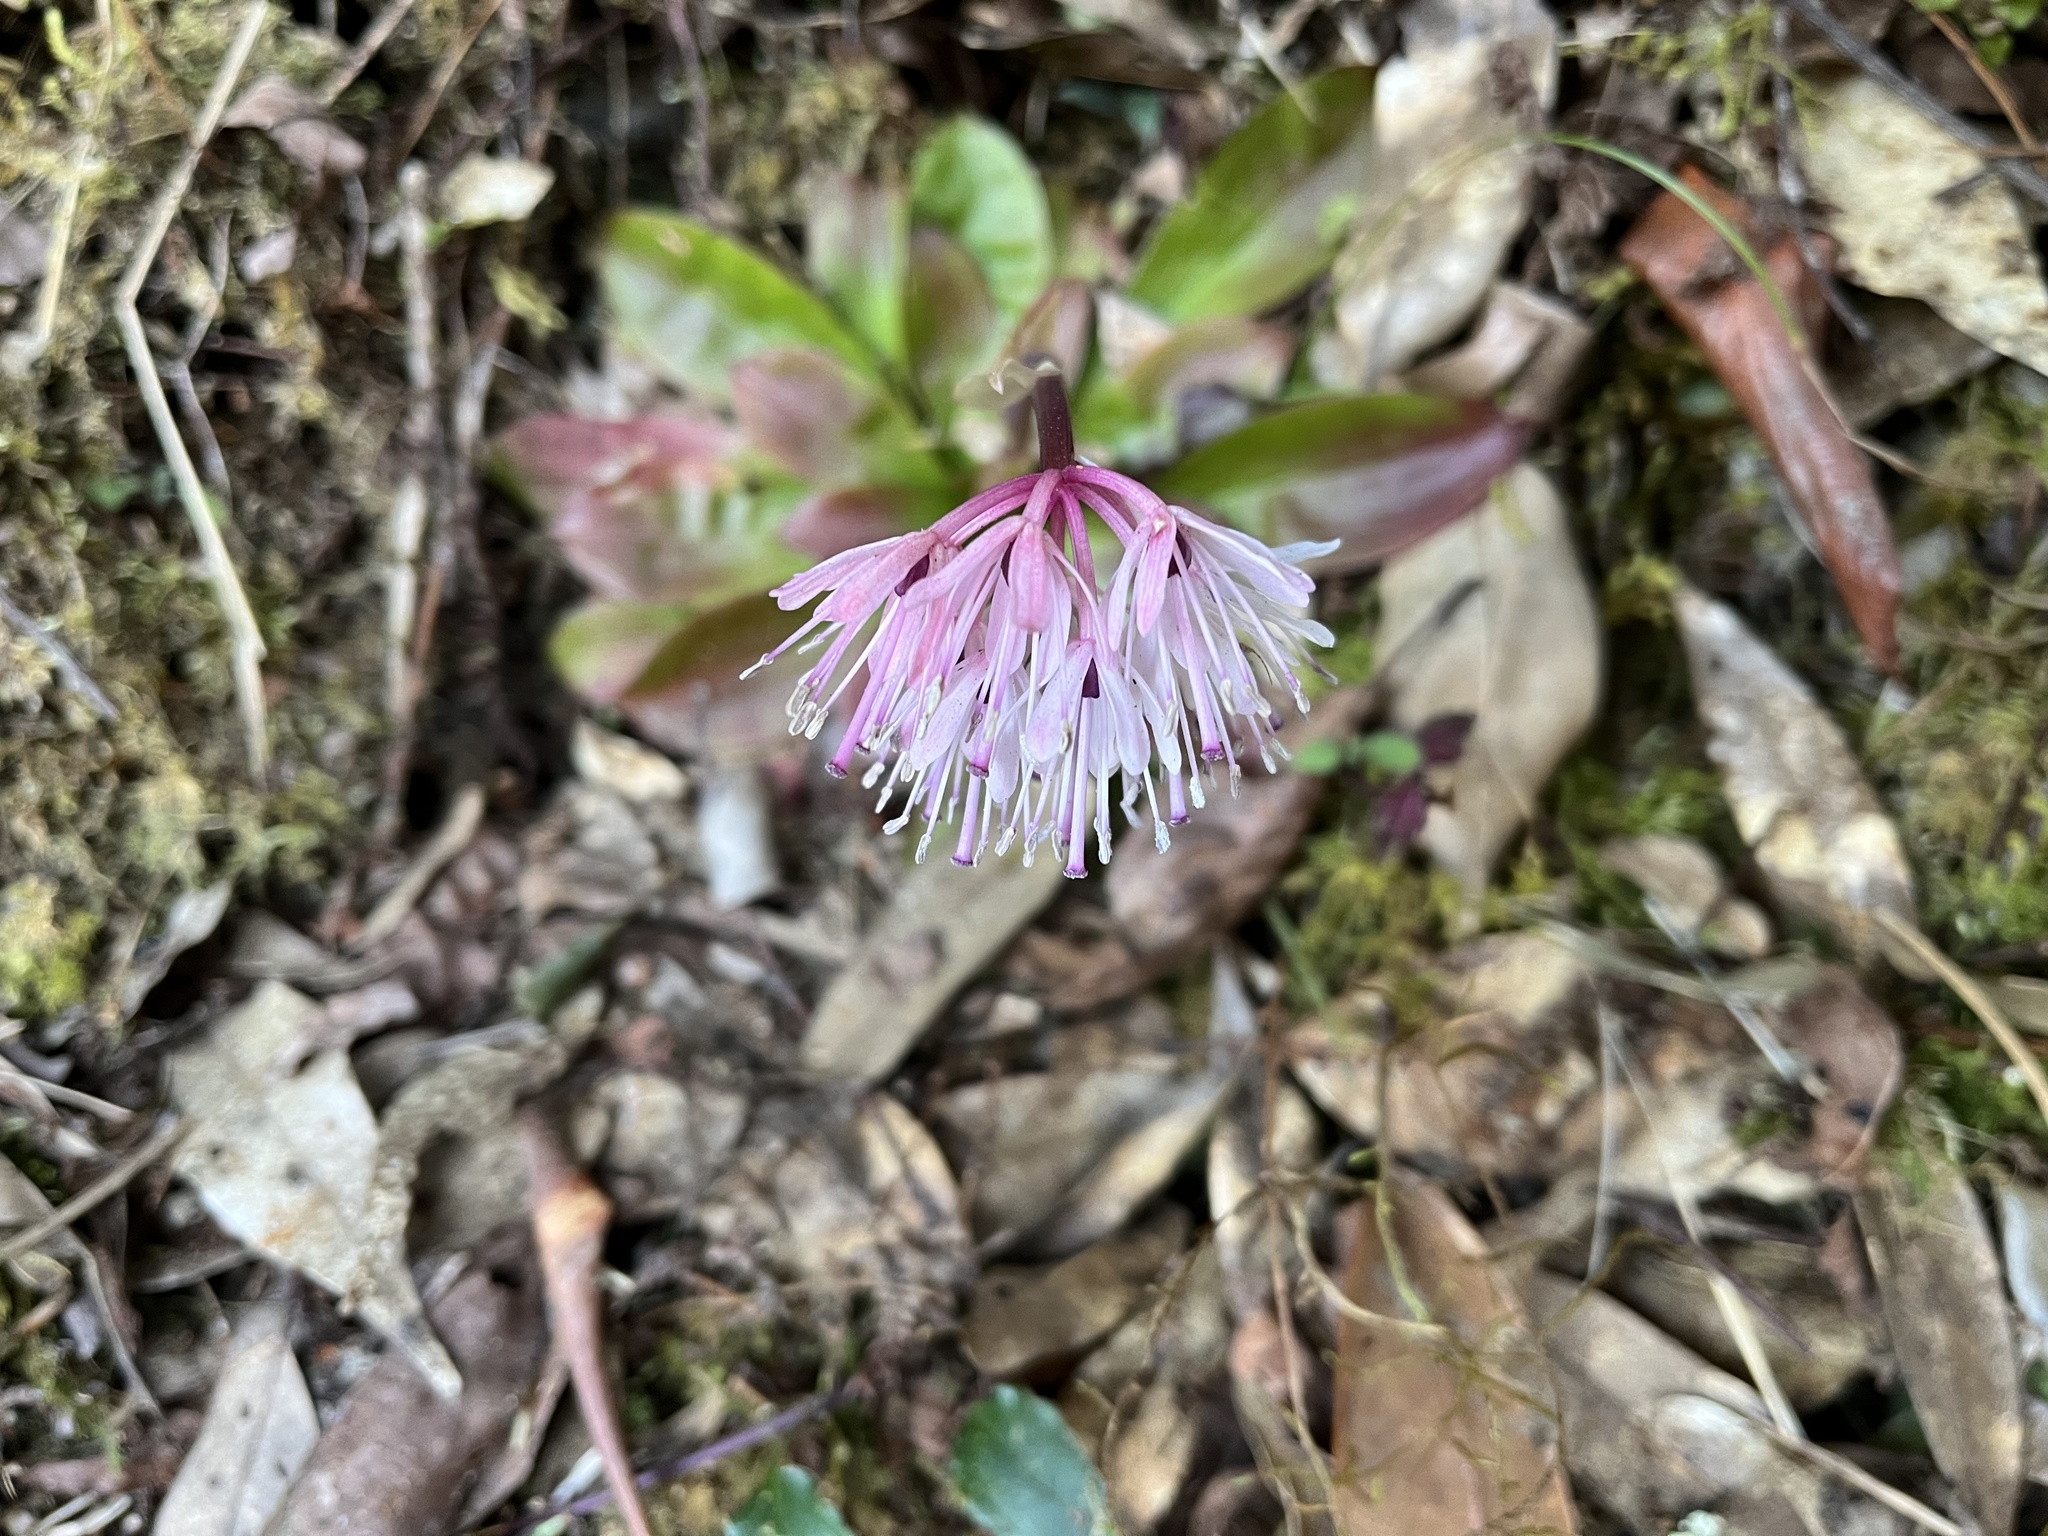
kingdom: Plantae
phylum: Tracheophyta
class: Liliopsida
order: Liliales
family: Melanthiaceae
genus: Helonias
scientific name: Helonias umbellata
